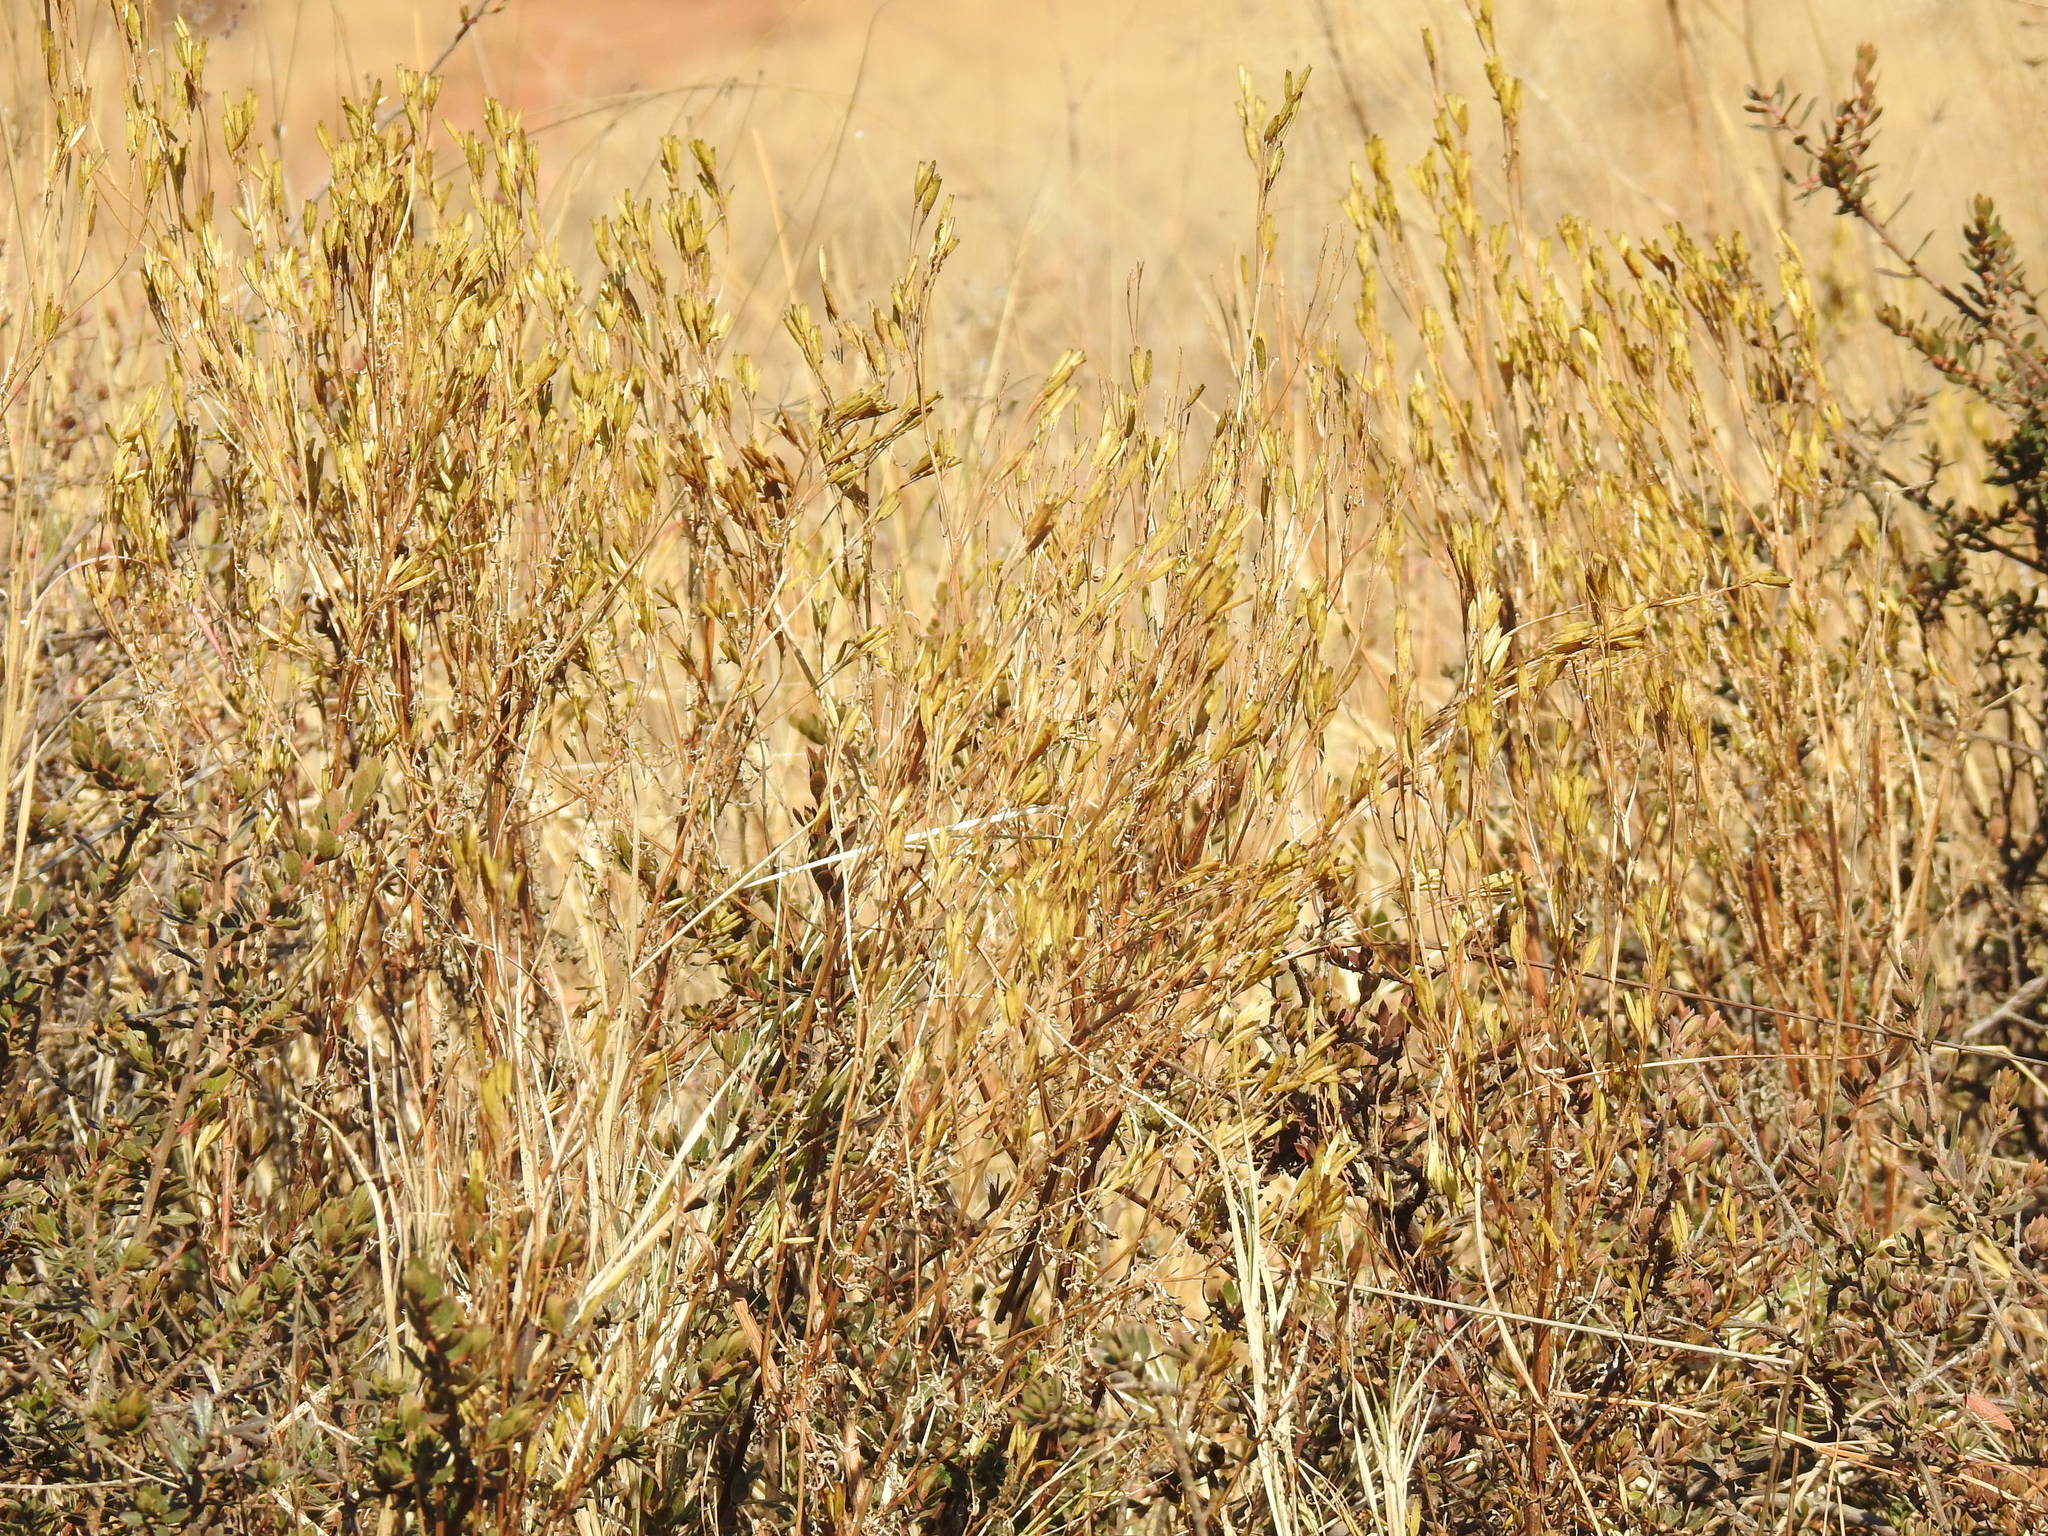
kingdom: Plantae
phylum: Tracheophyta
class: Magnoliopsida
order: Asterales
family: Asteraceae
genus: Tagetes
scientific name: Tagetes minuta
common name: Muster john henry
